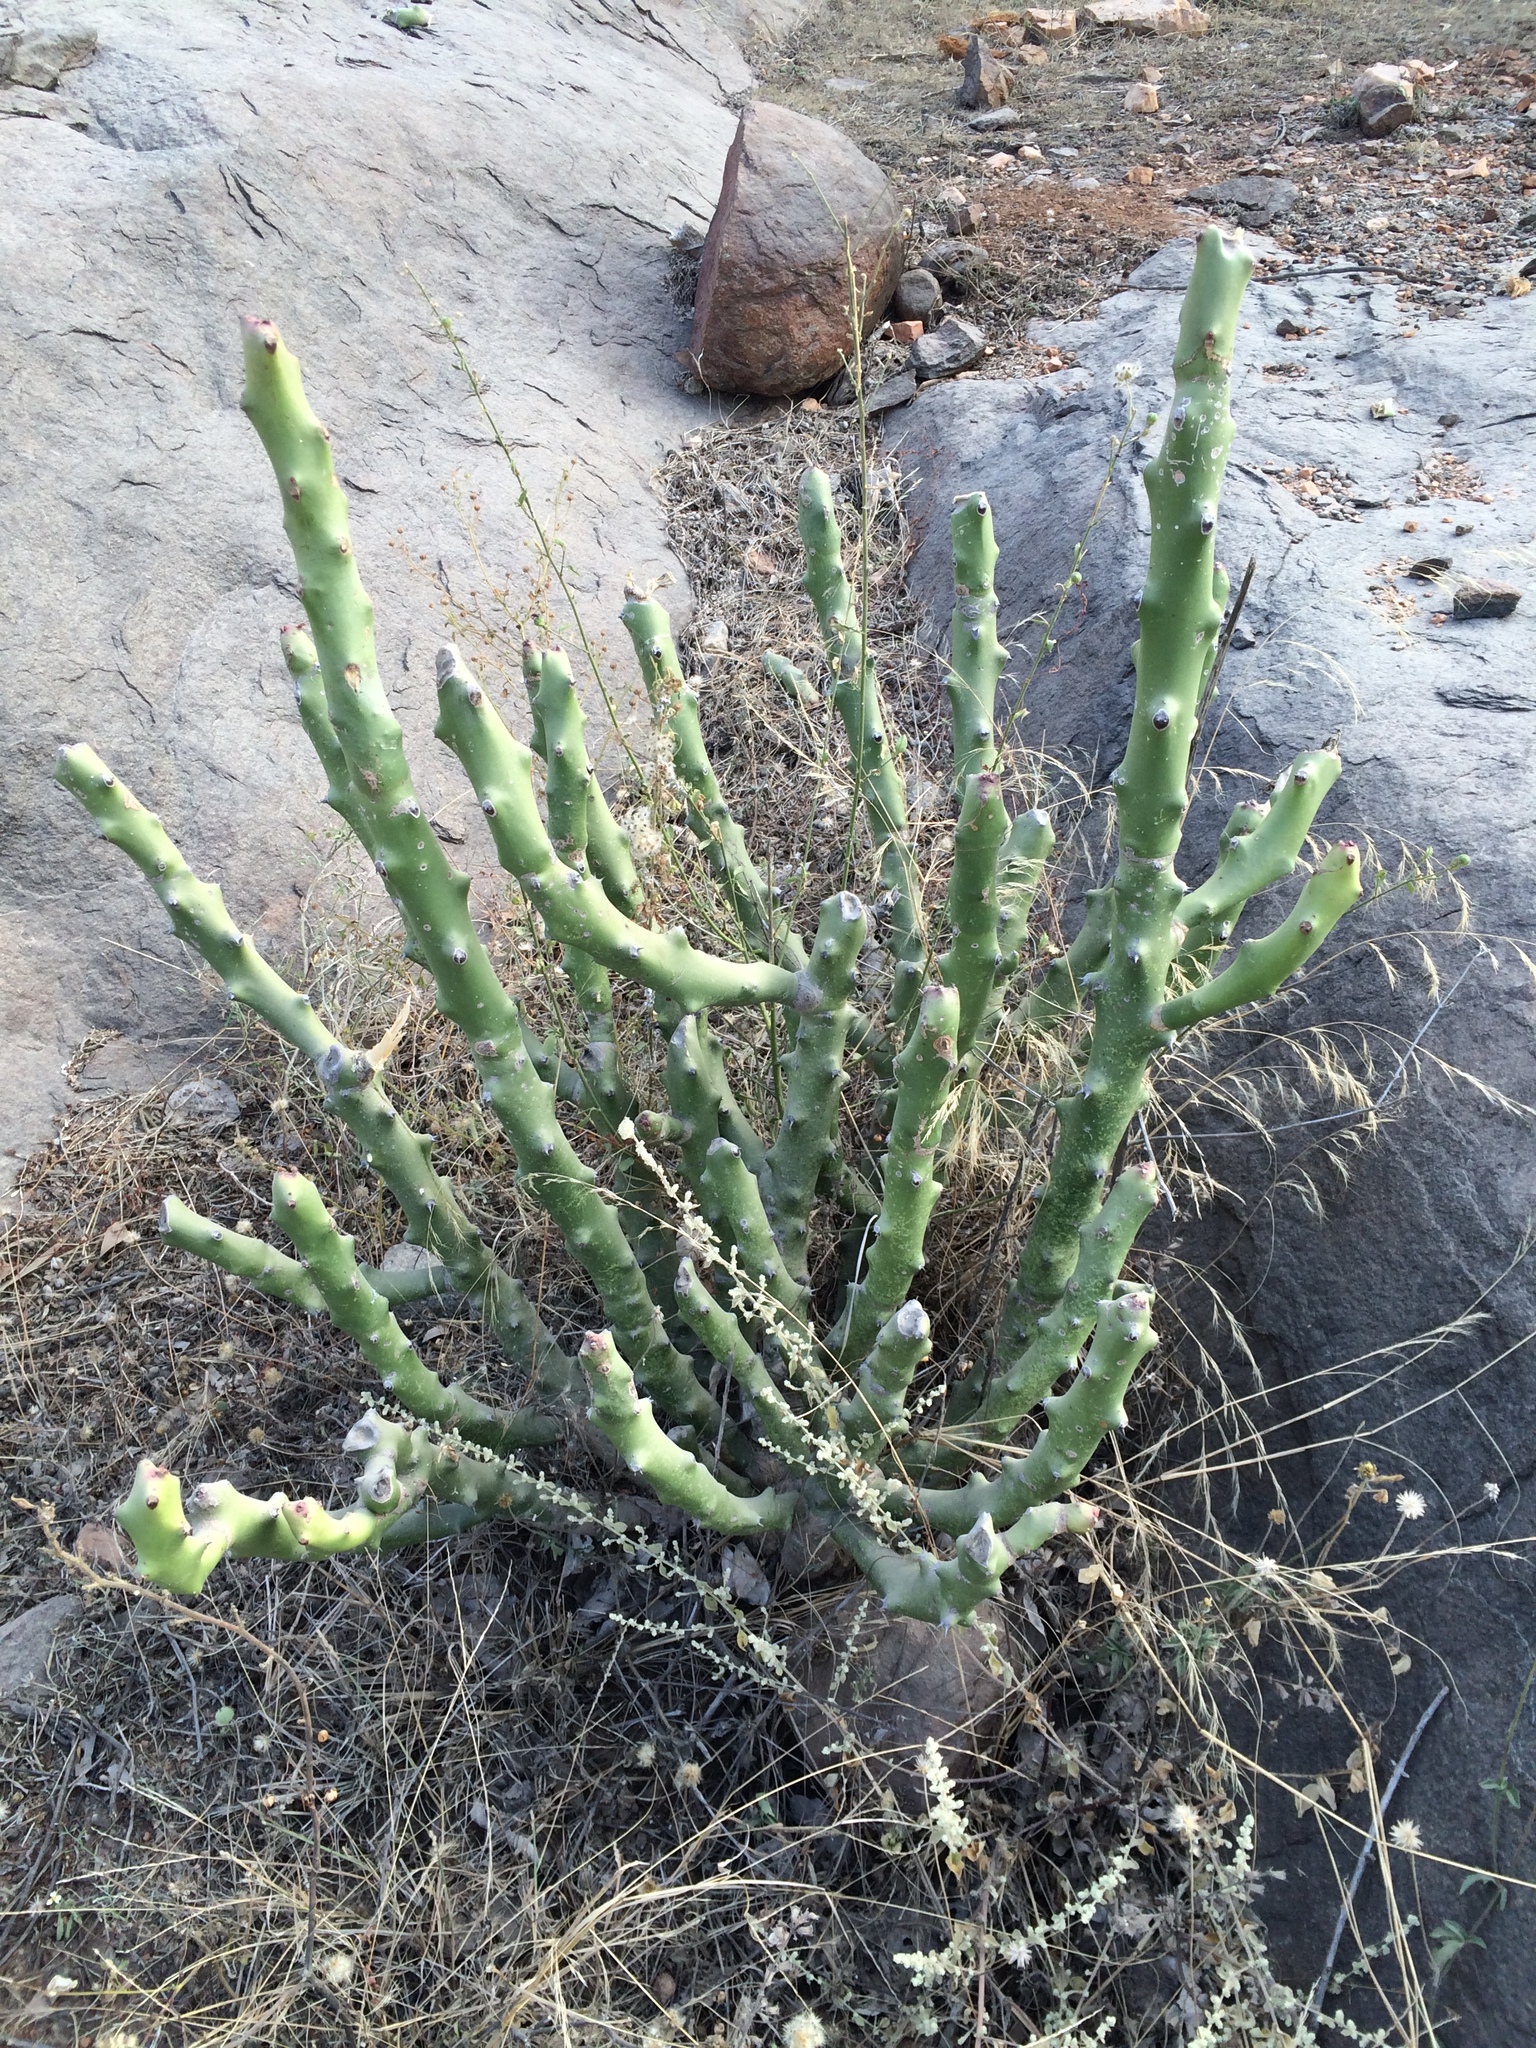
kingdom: Plantae
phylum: Tracheophyta
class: Magnoliopsida
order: Malpighiales
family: Euphorbiaceae
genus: Euphorbia
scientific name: Euphorbia caducifolia
